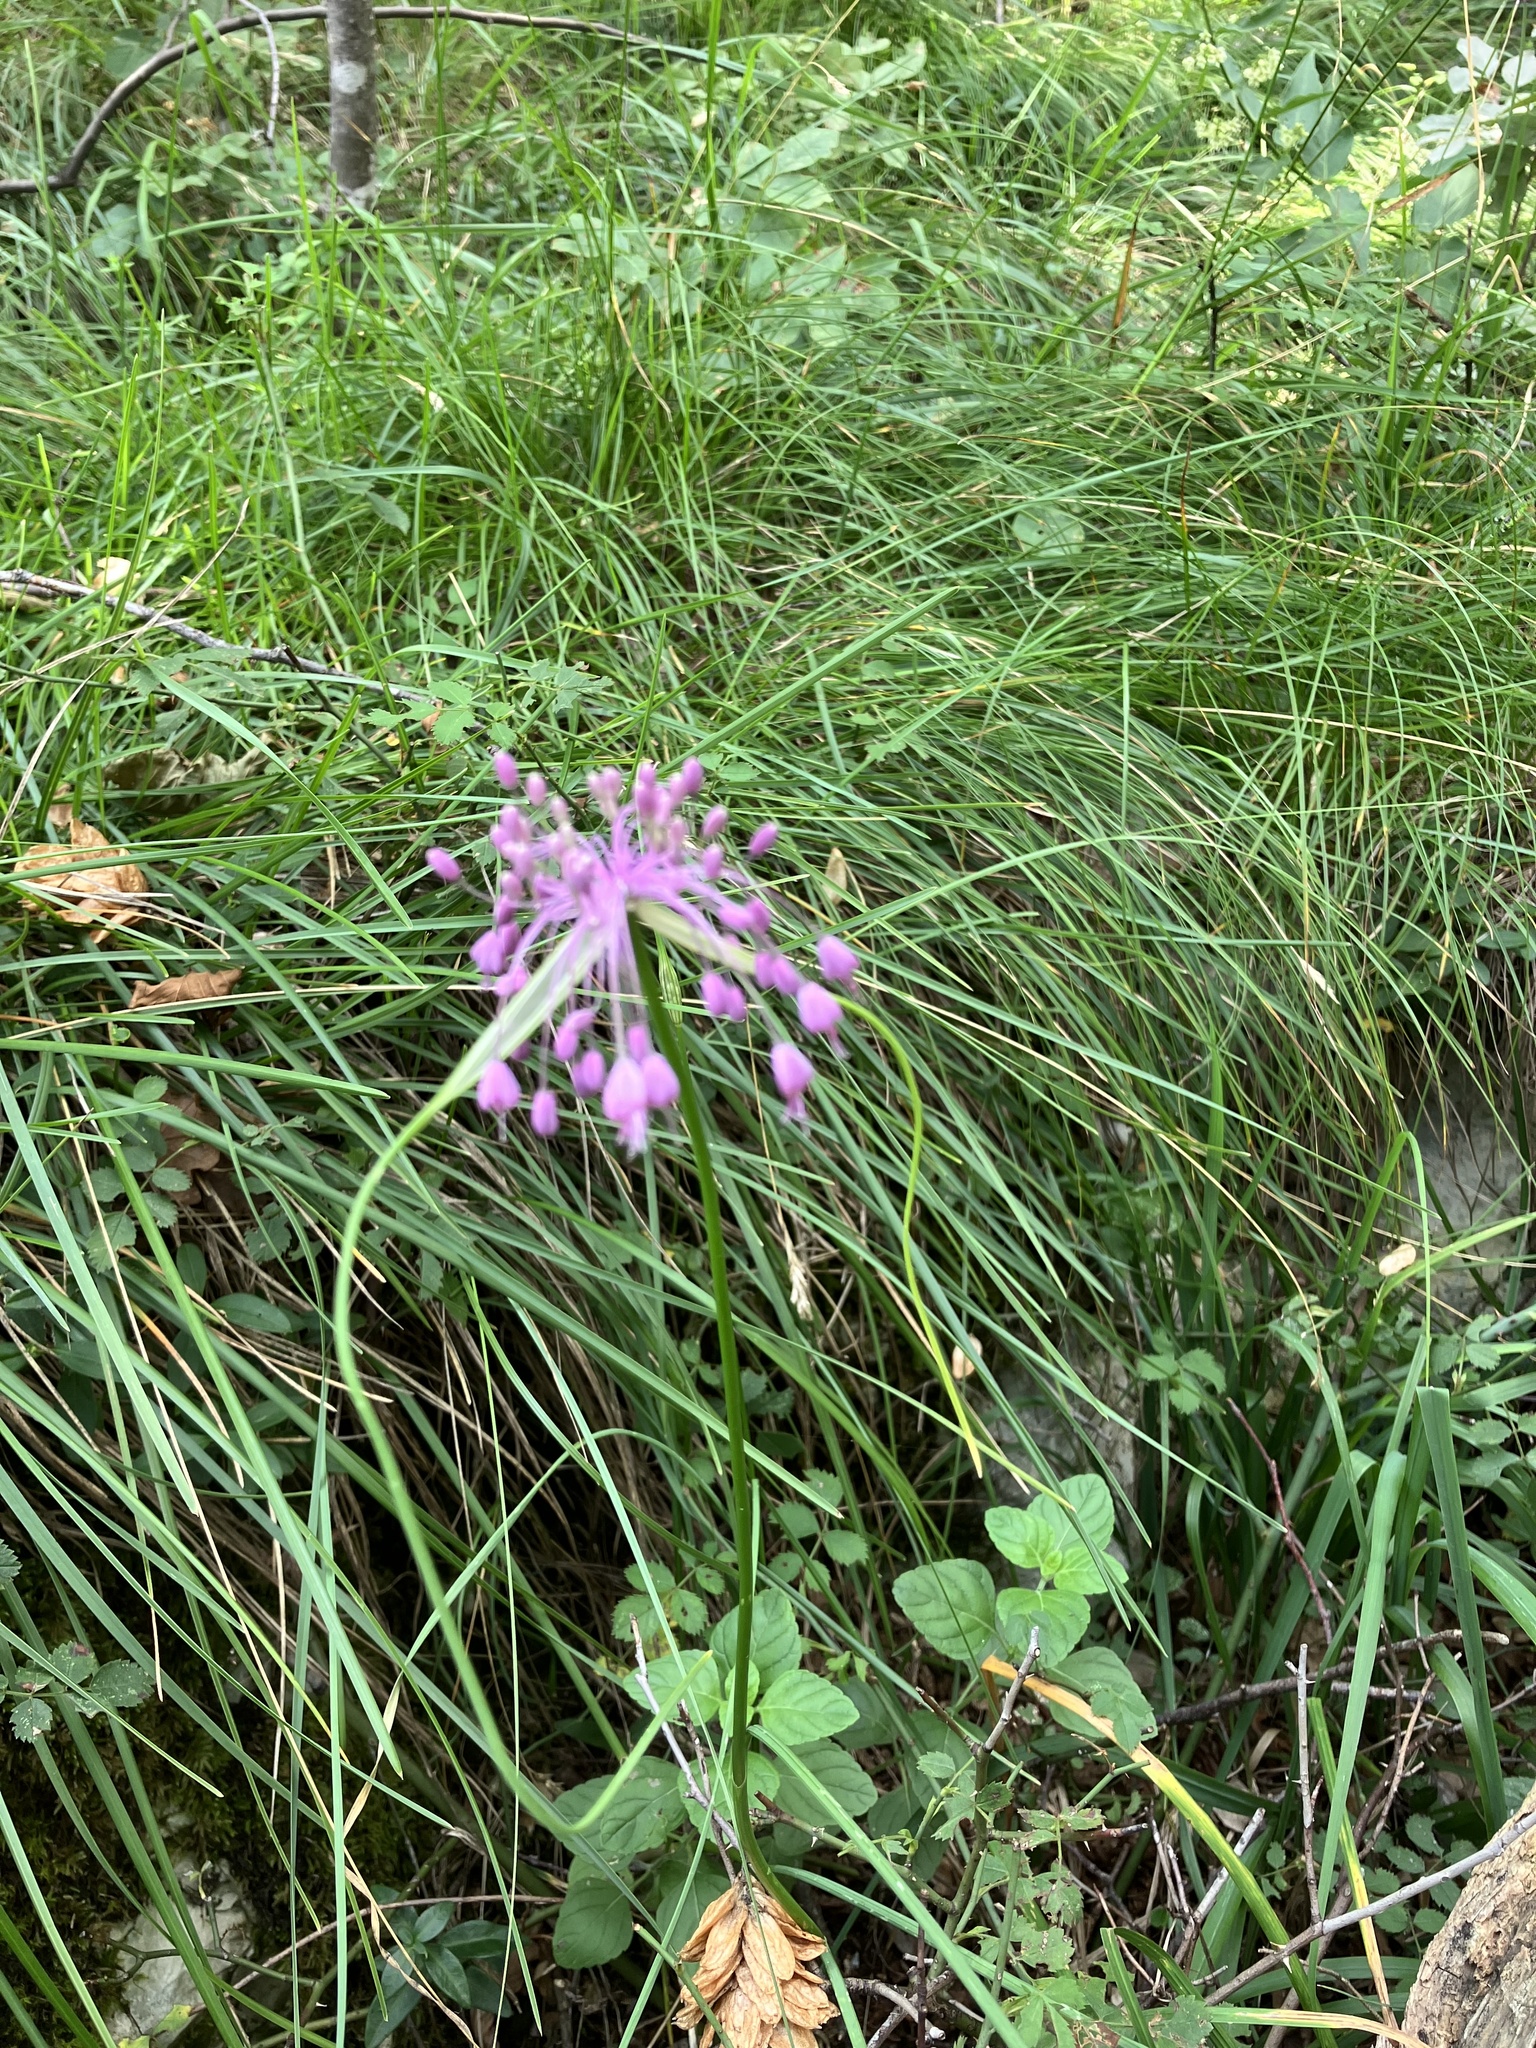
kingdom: Plantae
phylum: Tracheophyta
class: Liliopsida
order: Asparagales
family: Amaryllidaceae
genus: Allium
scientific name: Allium carinatum
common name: Keeled garlic
